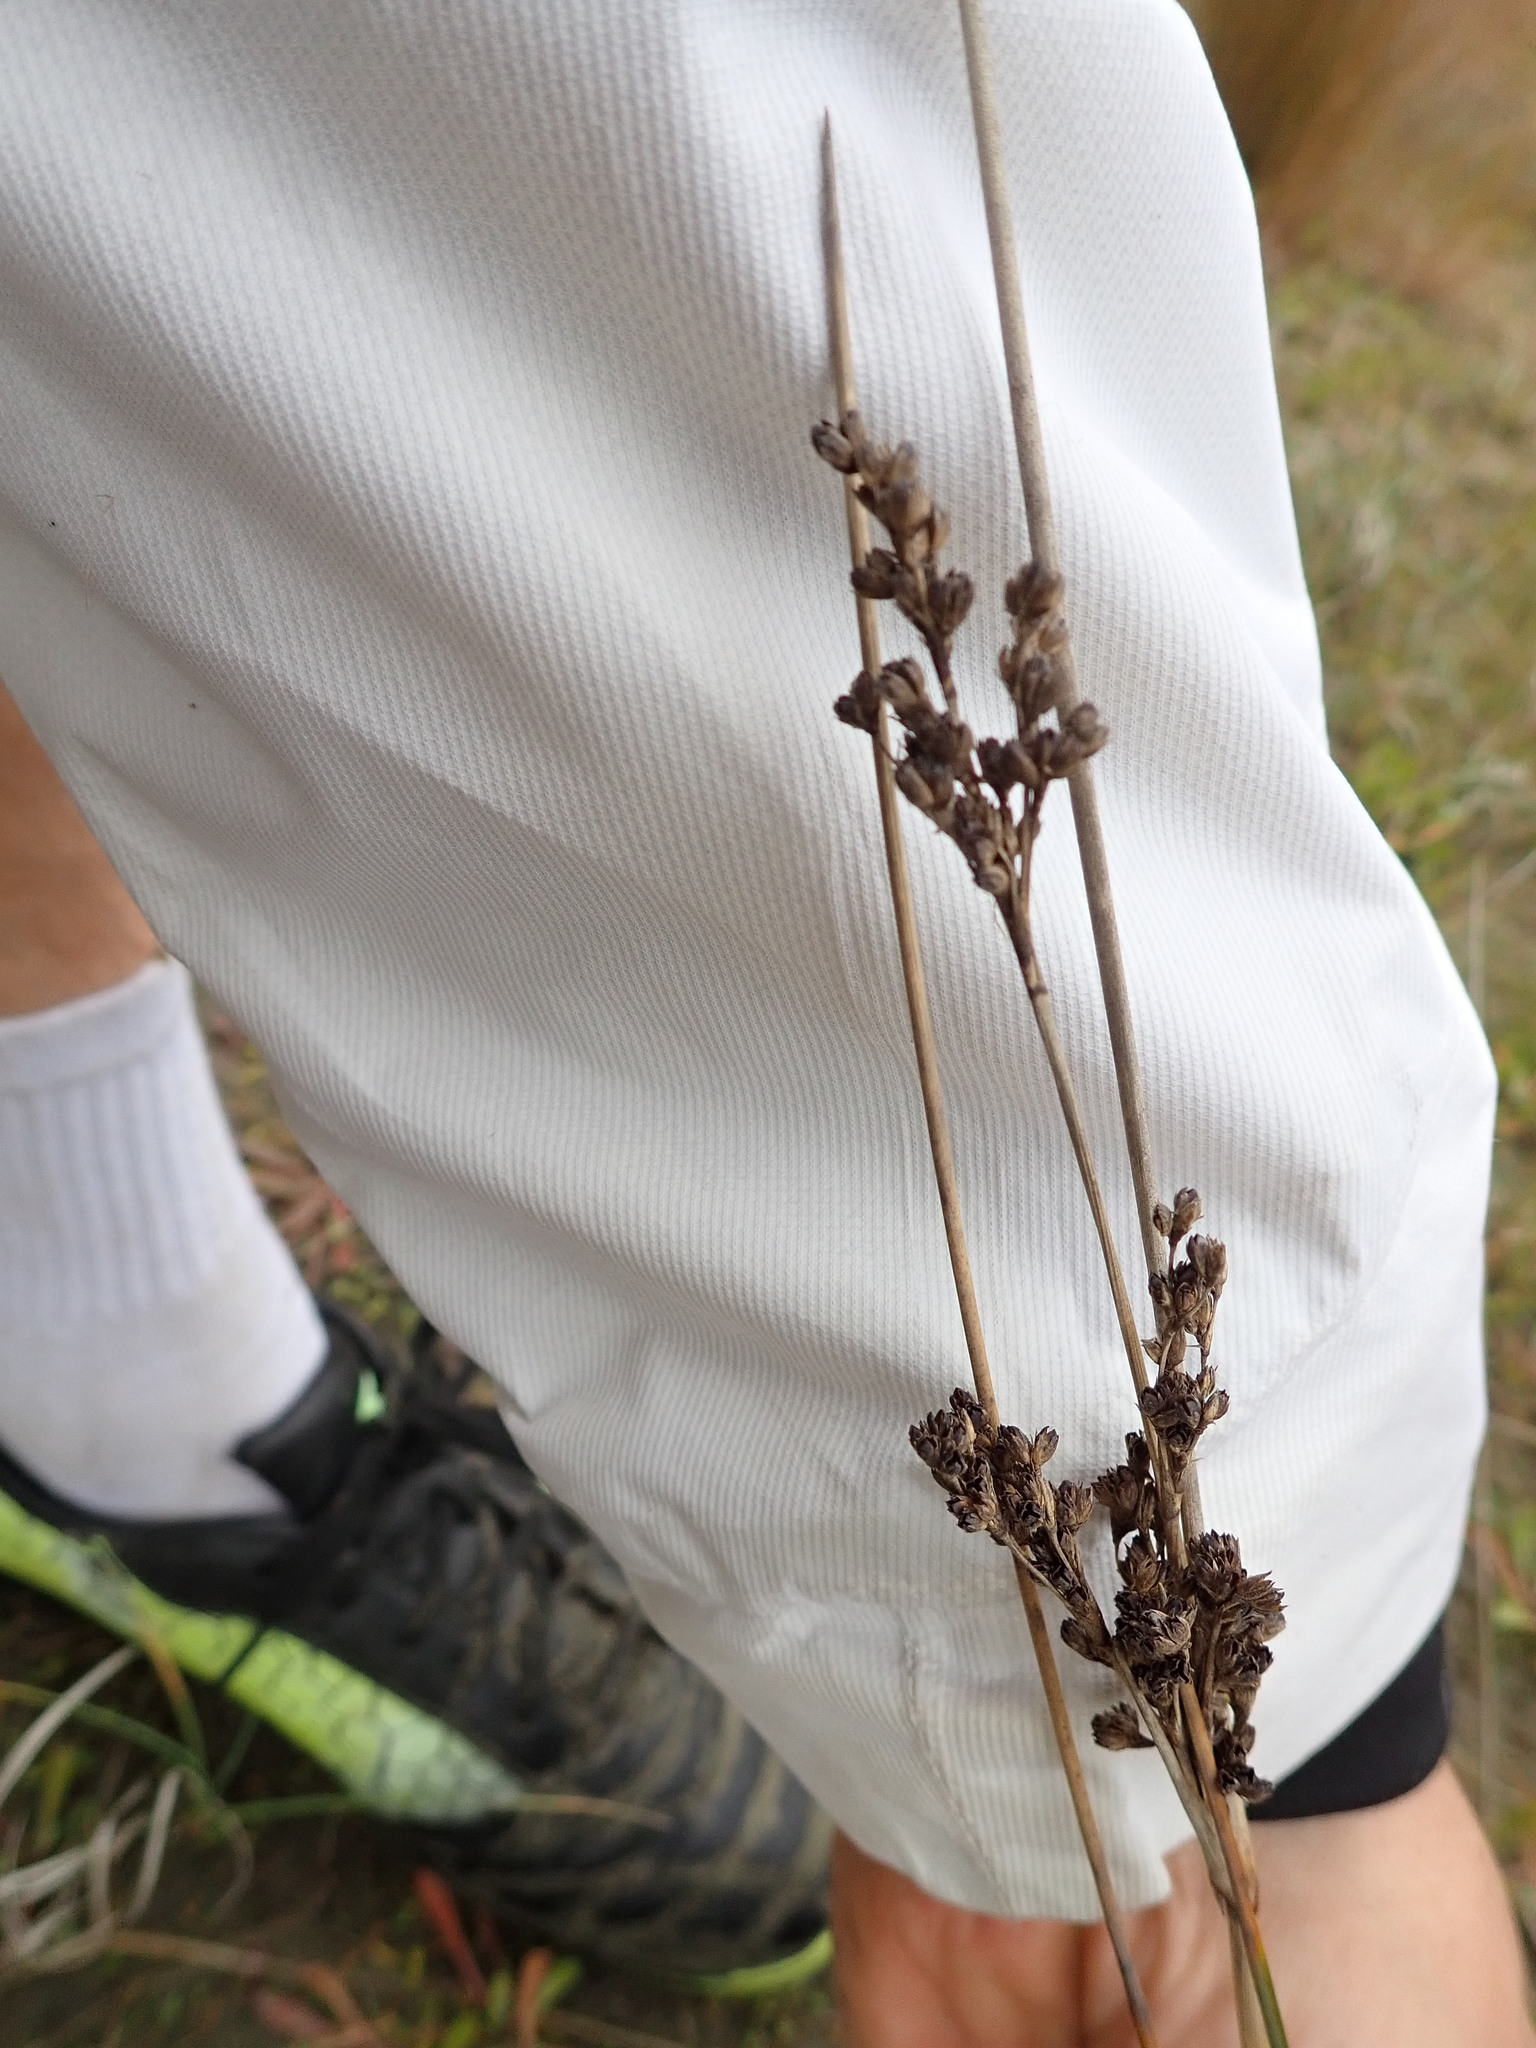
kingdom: Plantae
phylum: Tracheophyta
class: Liliopsida
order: Poales
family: Juncaceae
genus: Juncus
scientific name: Juncus kraussii
